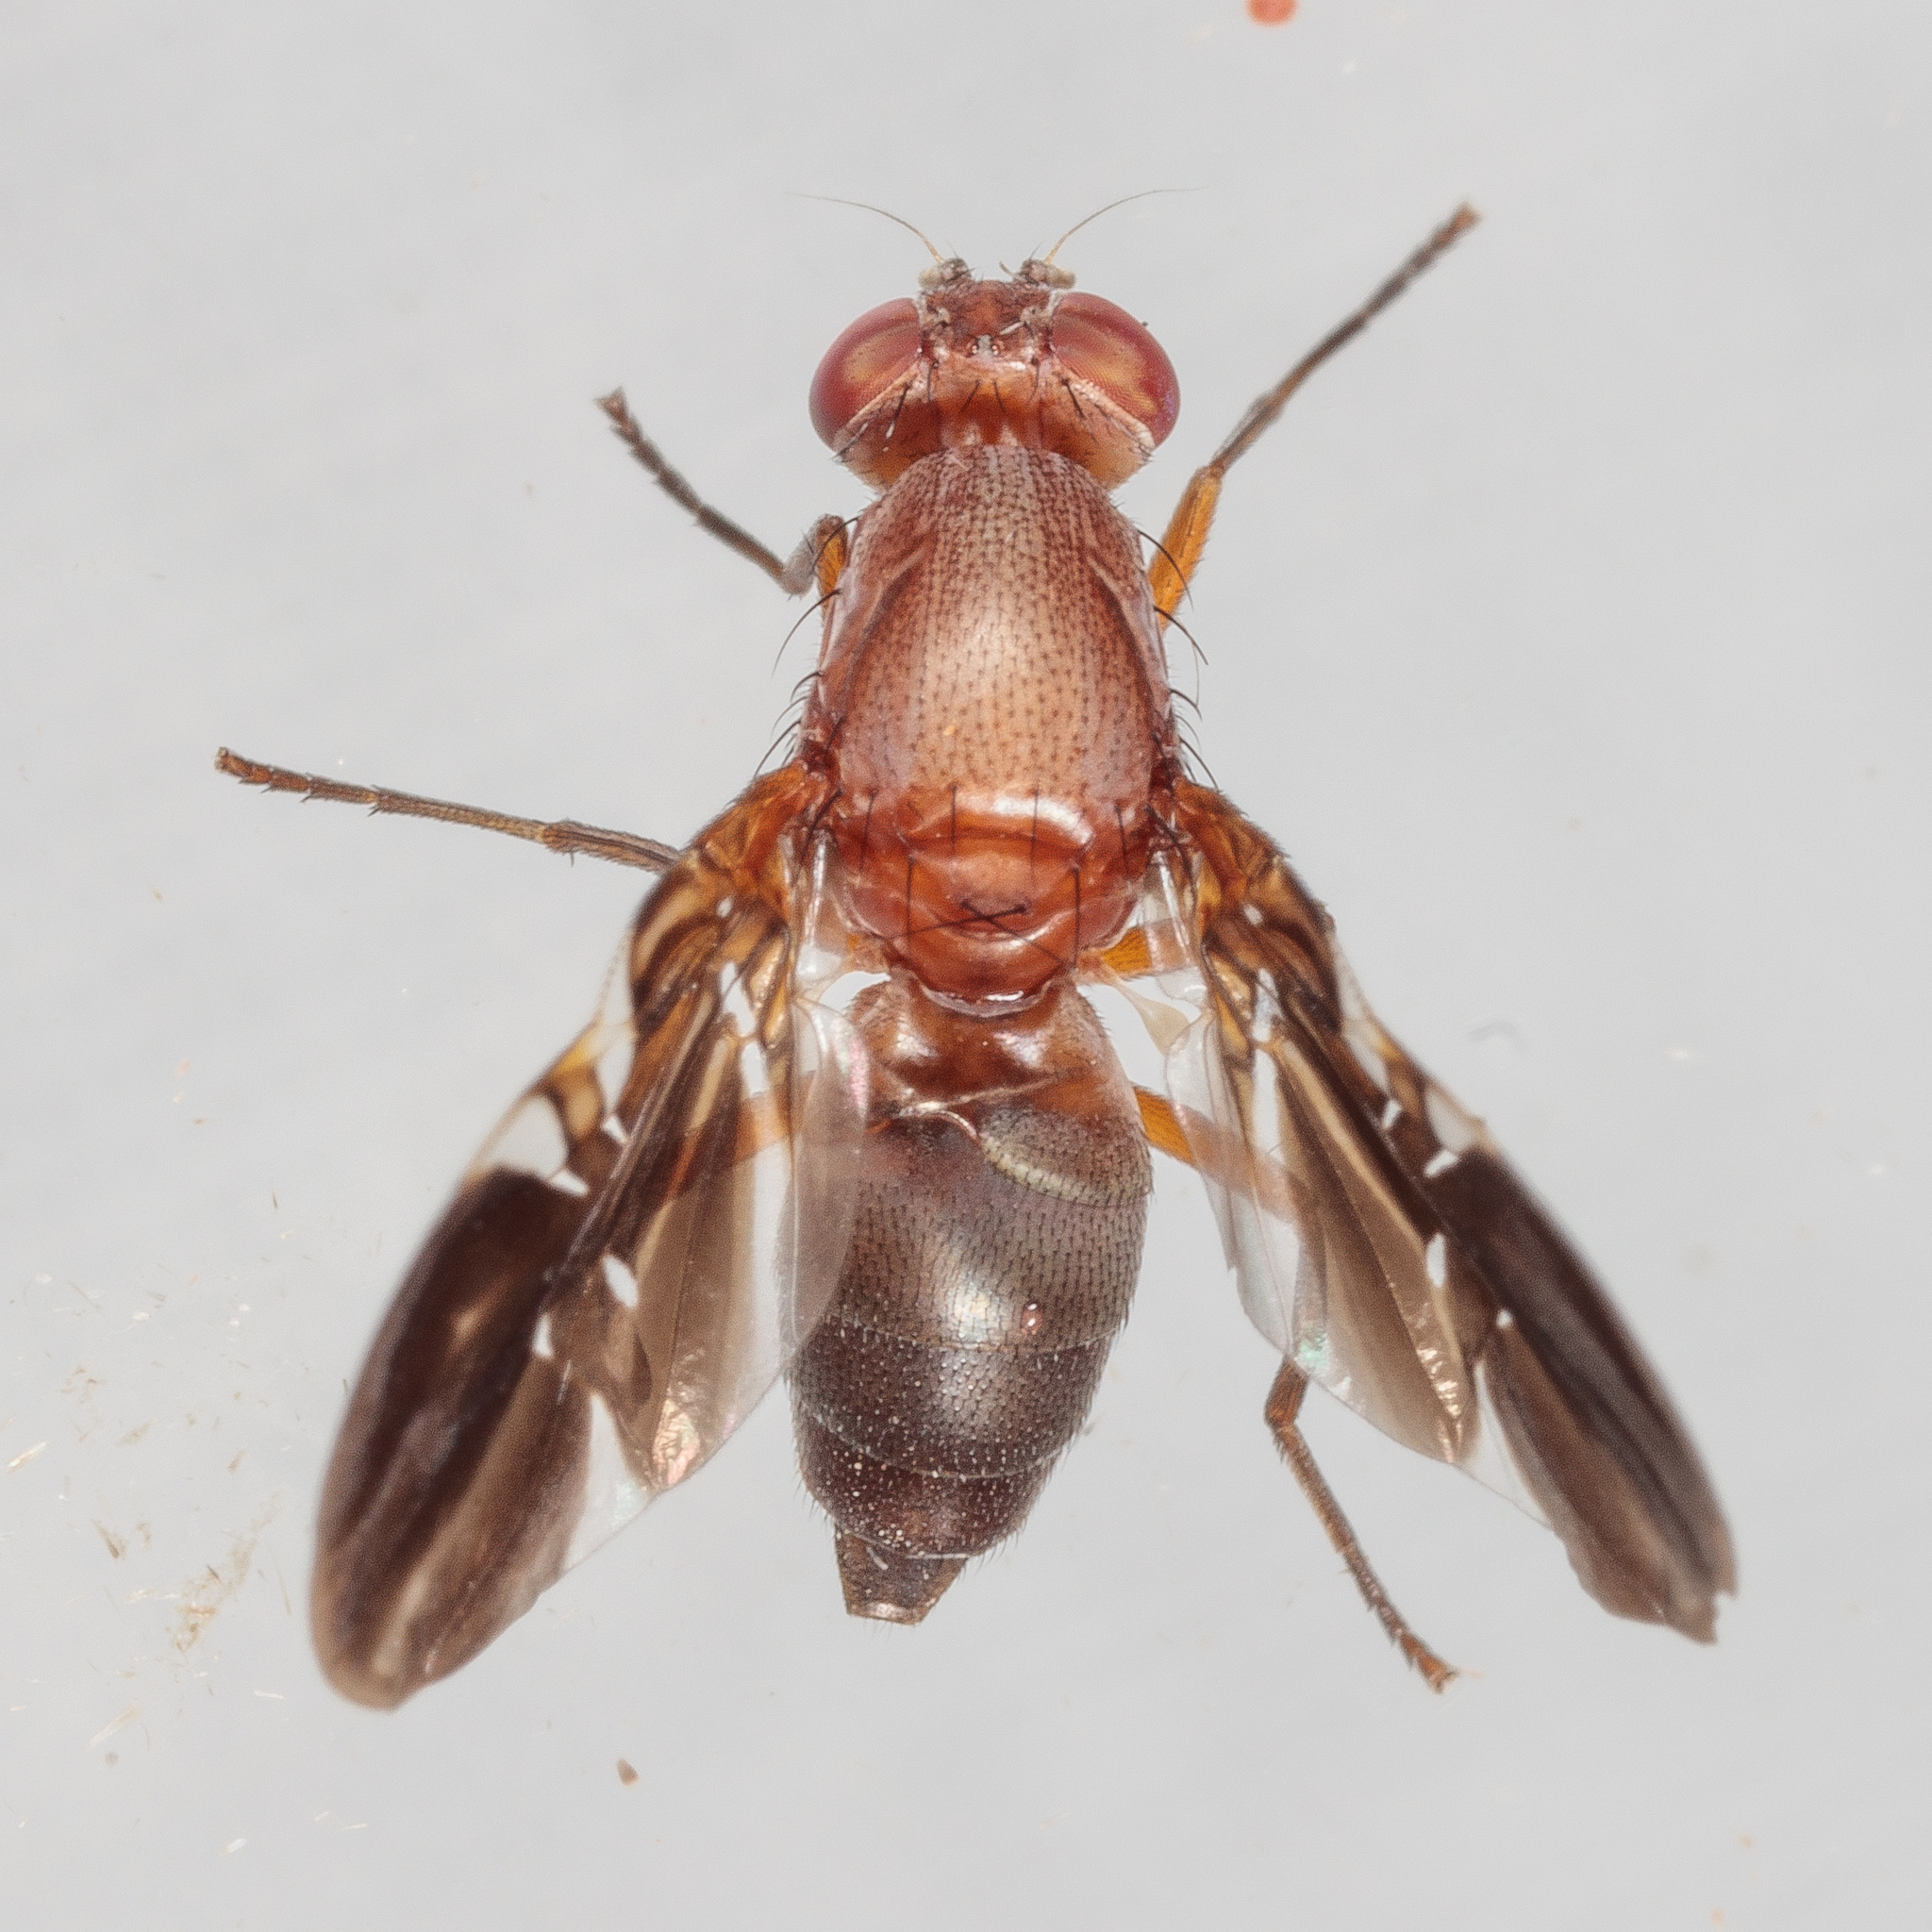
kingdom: Animalia
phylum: Arthropoda
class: Insecta
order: Diptera
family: Ulidiidae
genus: Delphinia
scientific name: Delphinia picta
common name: Common picture-winged fly
